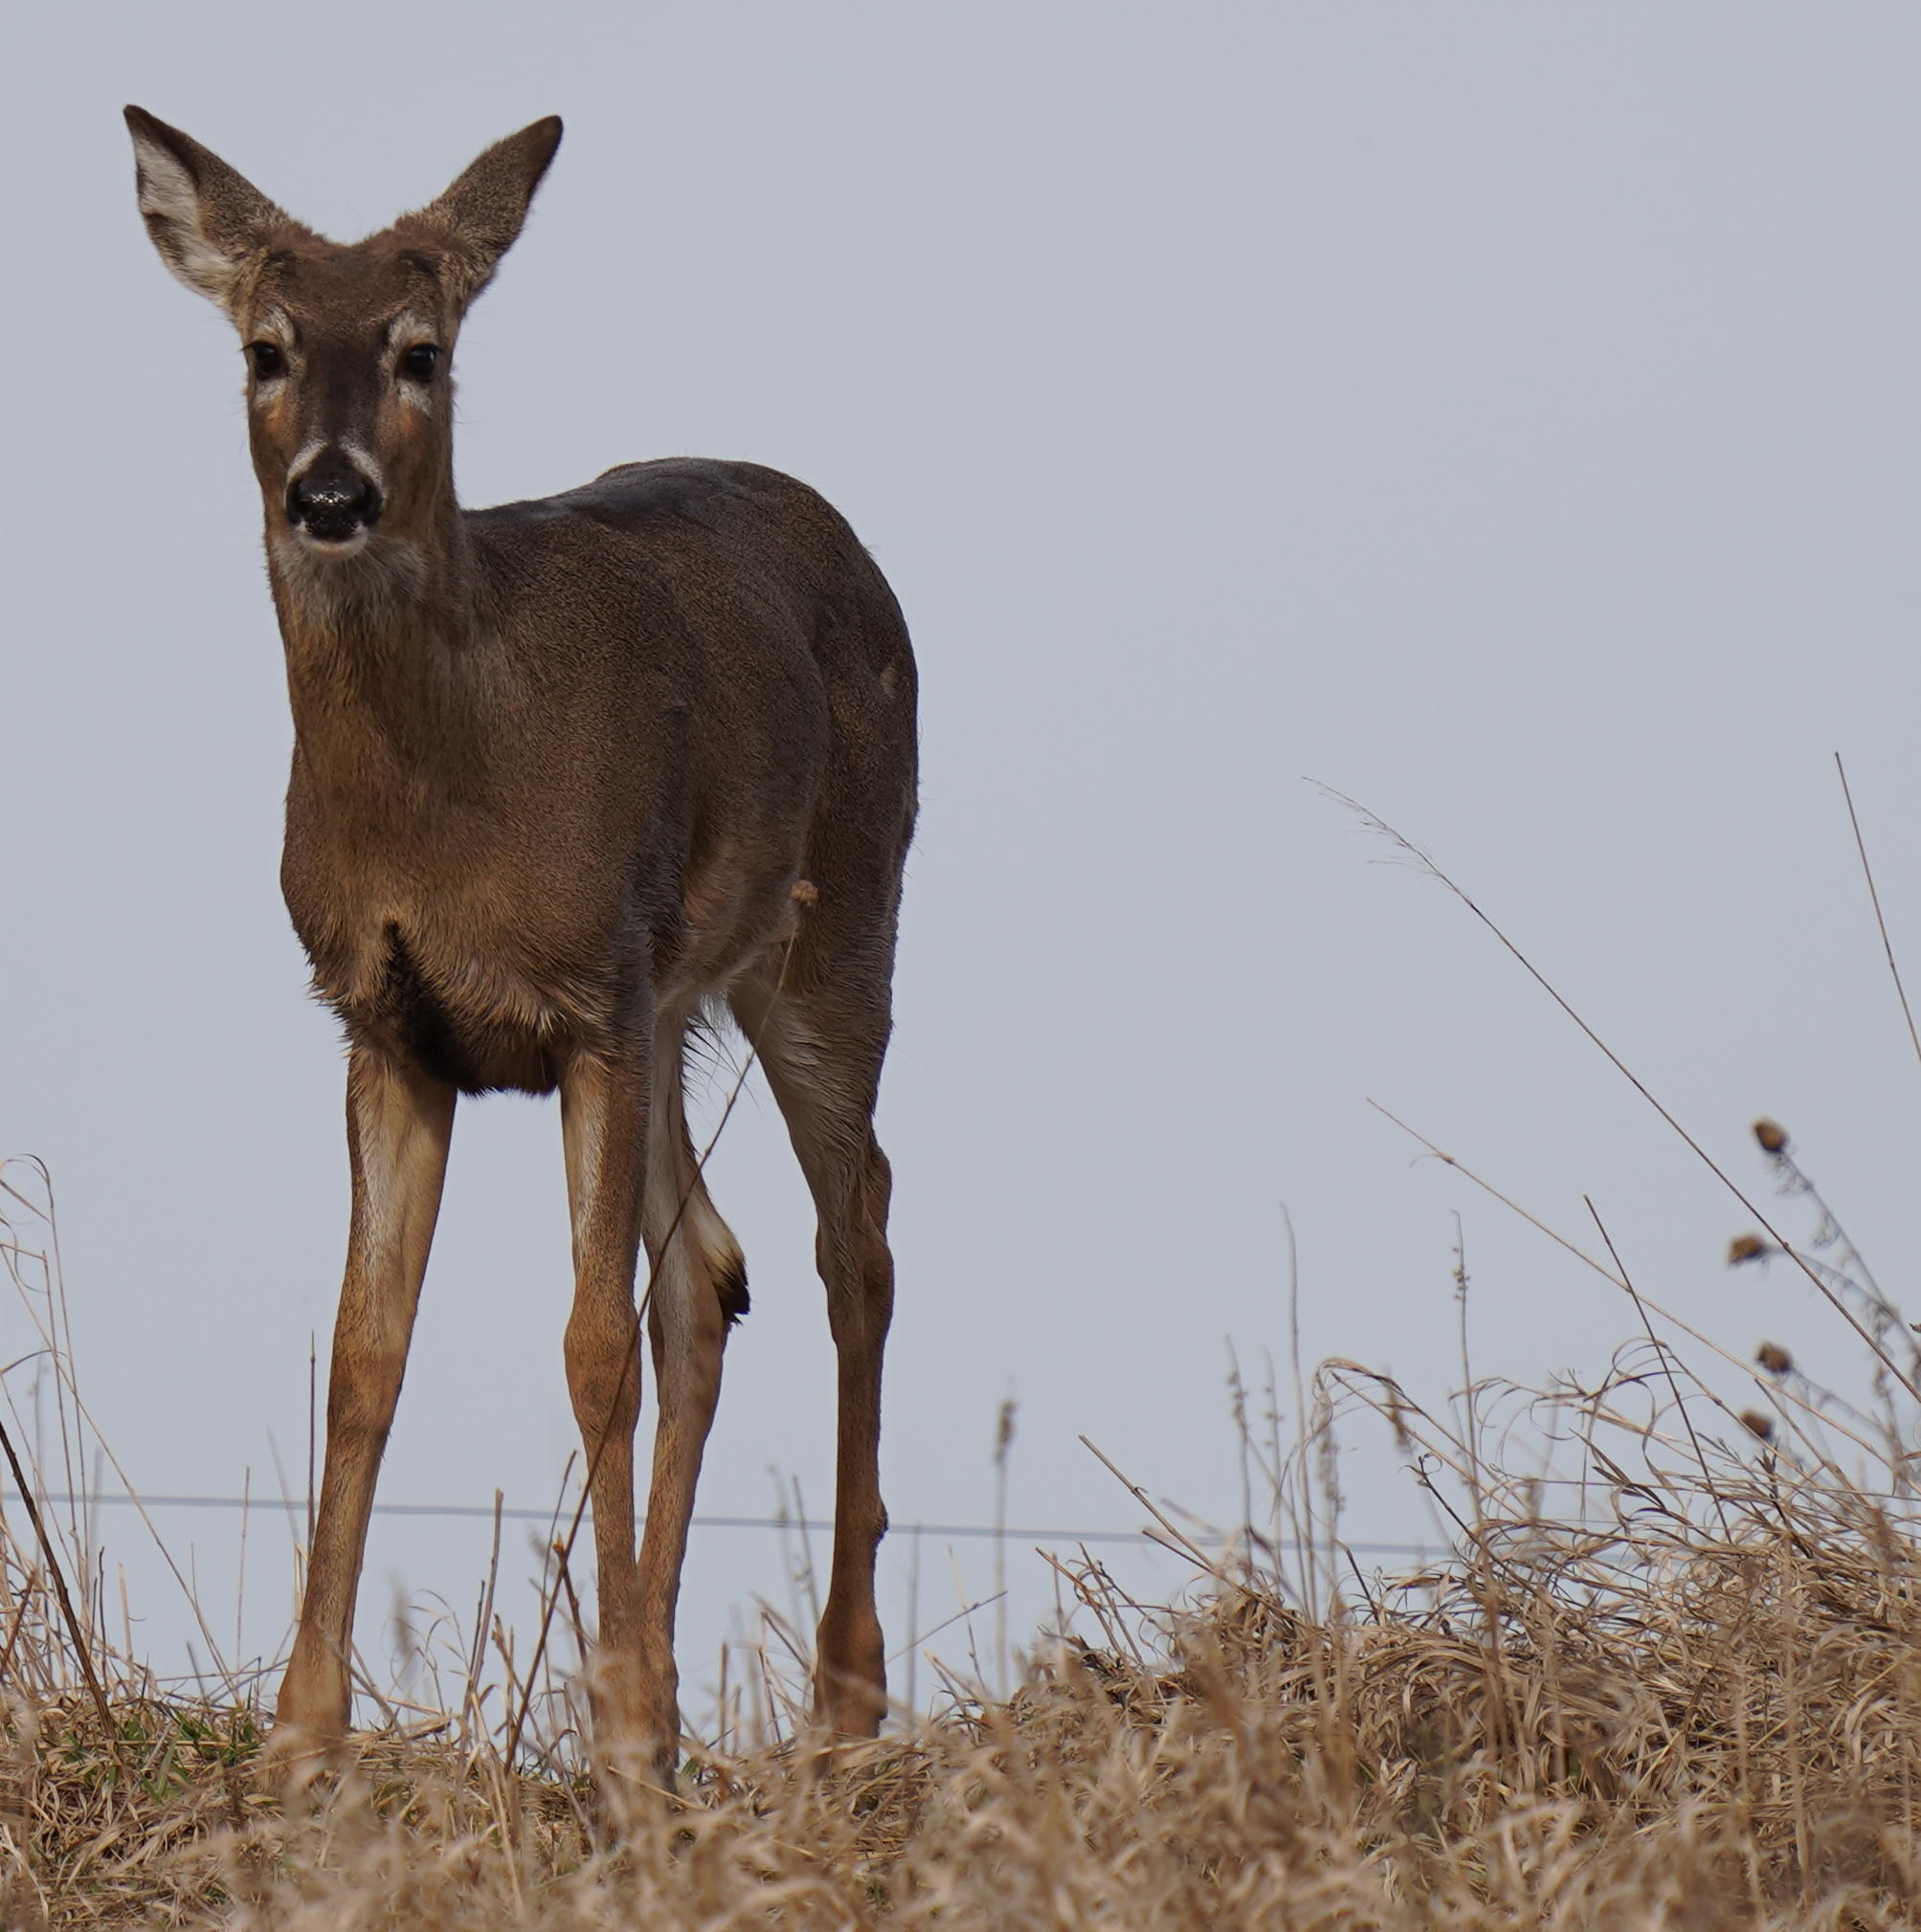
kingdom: Animalia
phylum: Chordata
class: Mammalia
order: Artiodactyla
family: Cervidae
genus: Odocoileus
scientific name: Odocoileus virginianus
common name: White-tailed deer
